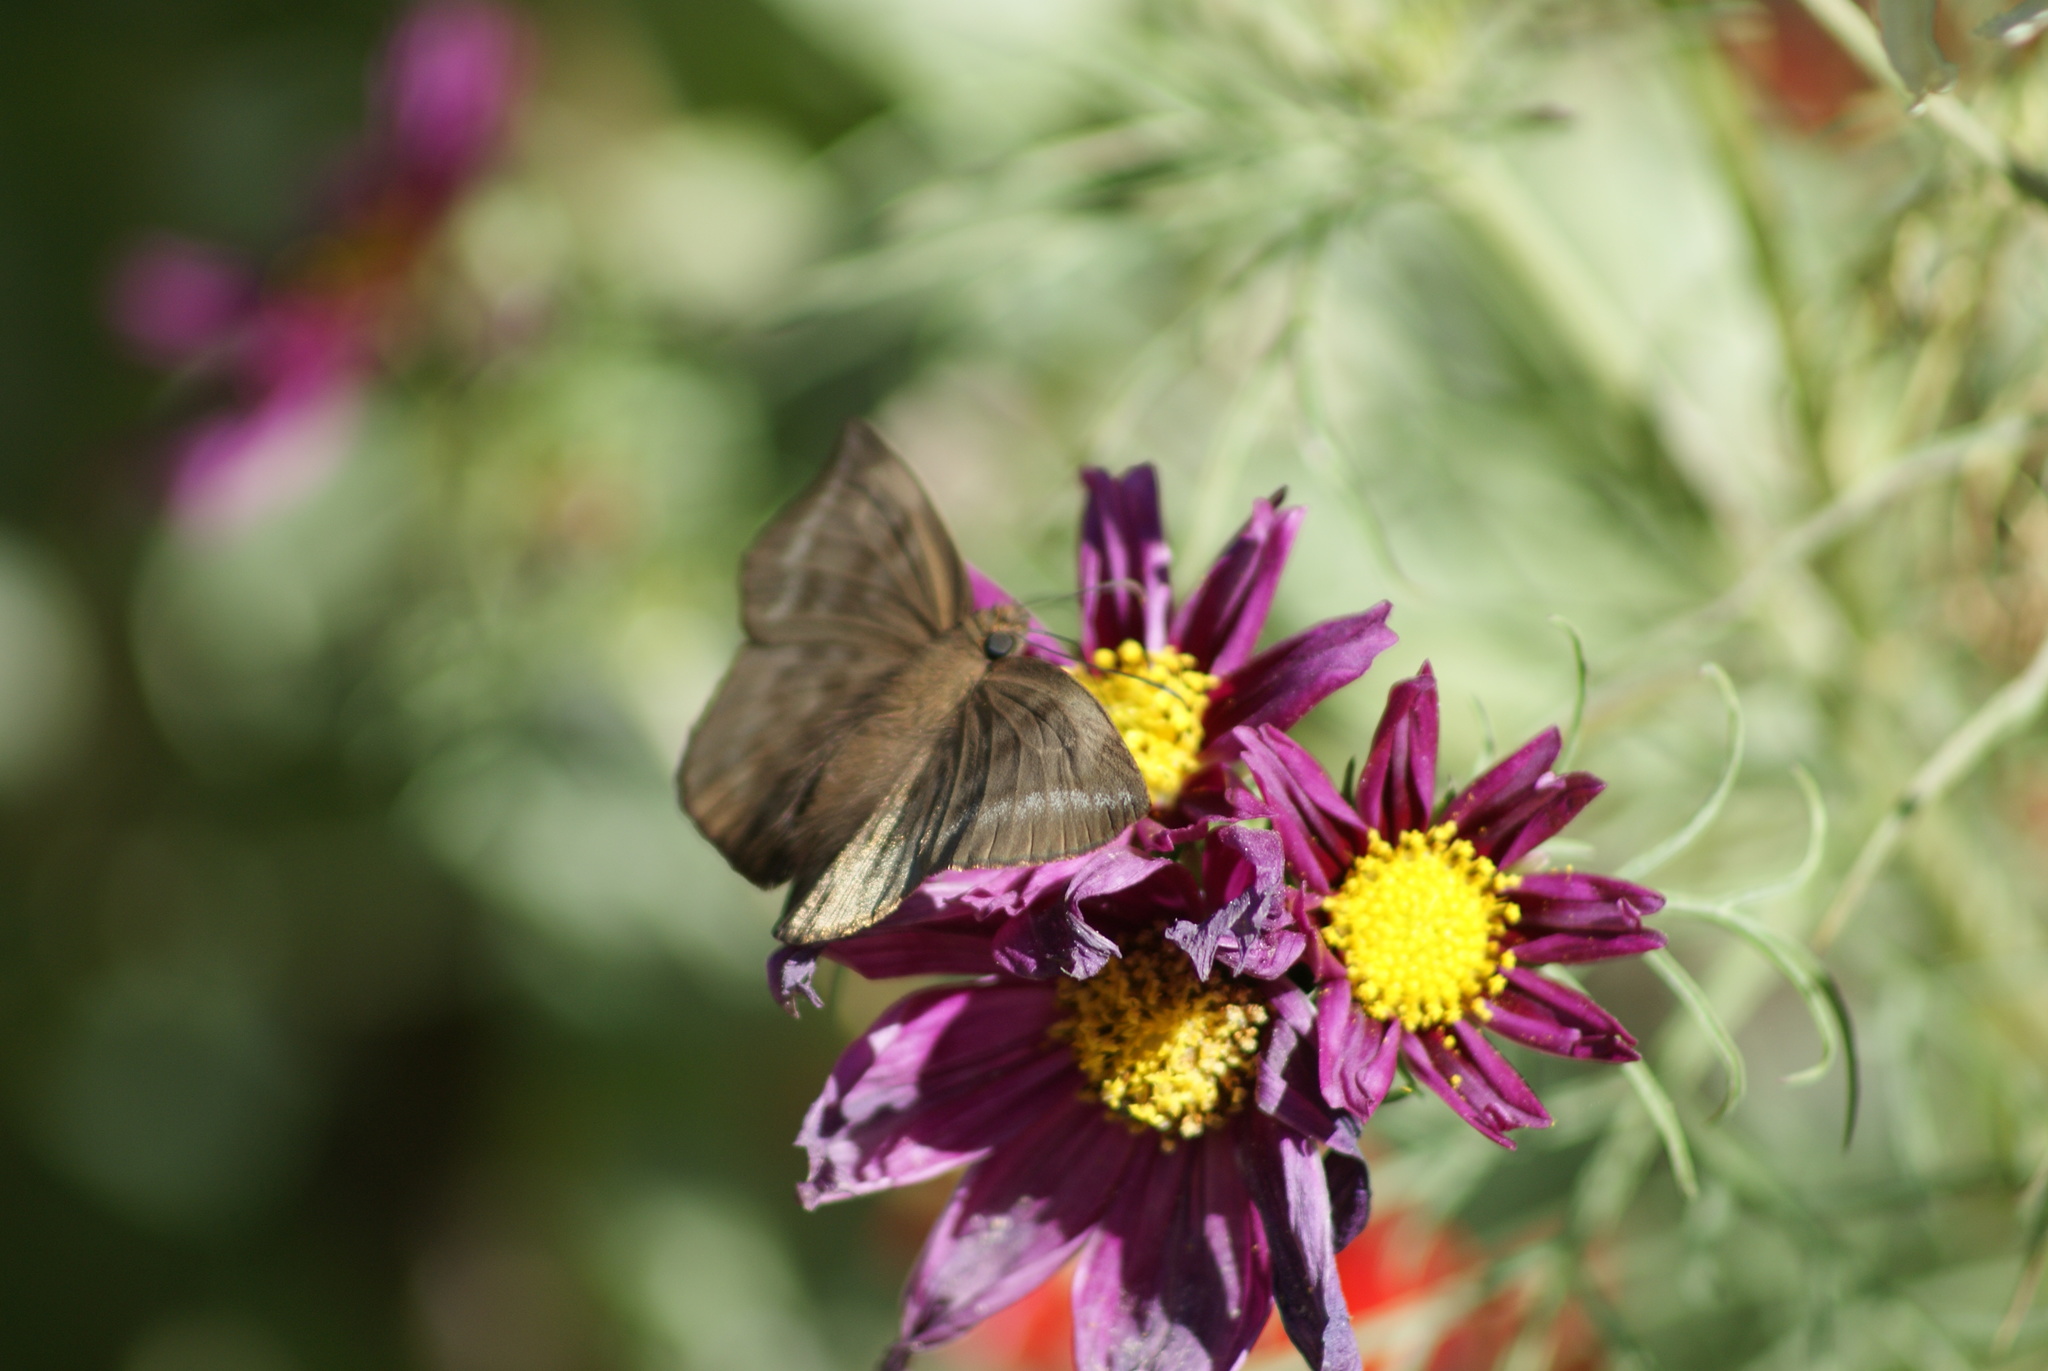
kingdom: Animalia
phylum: Arthropoda
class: Insecta
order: Lepidoptera
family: Hesperiidae
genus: Achlyodes
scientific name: Achlyodes pallida
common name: Pale sicklewing
